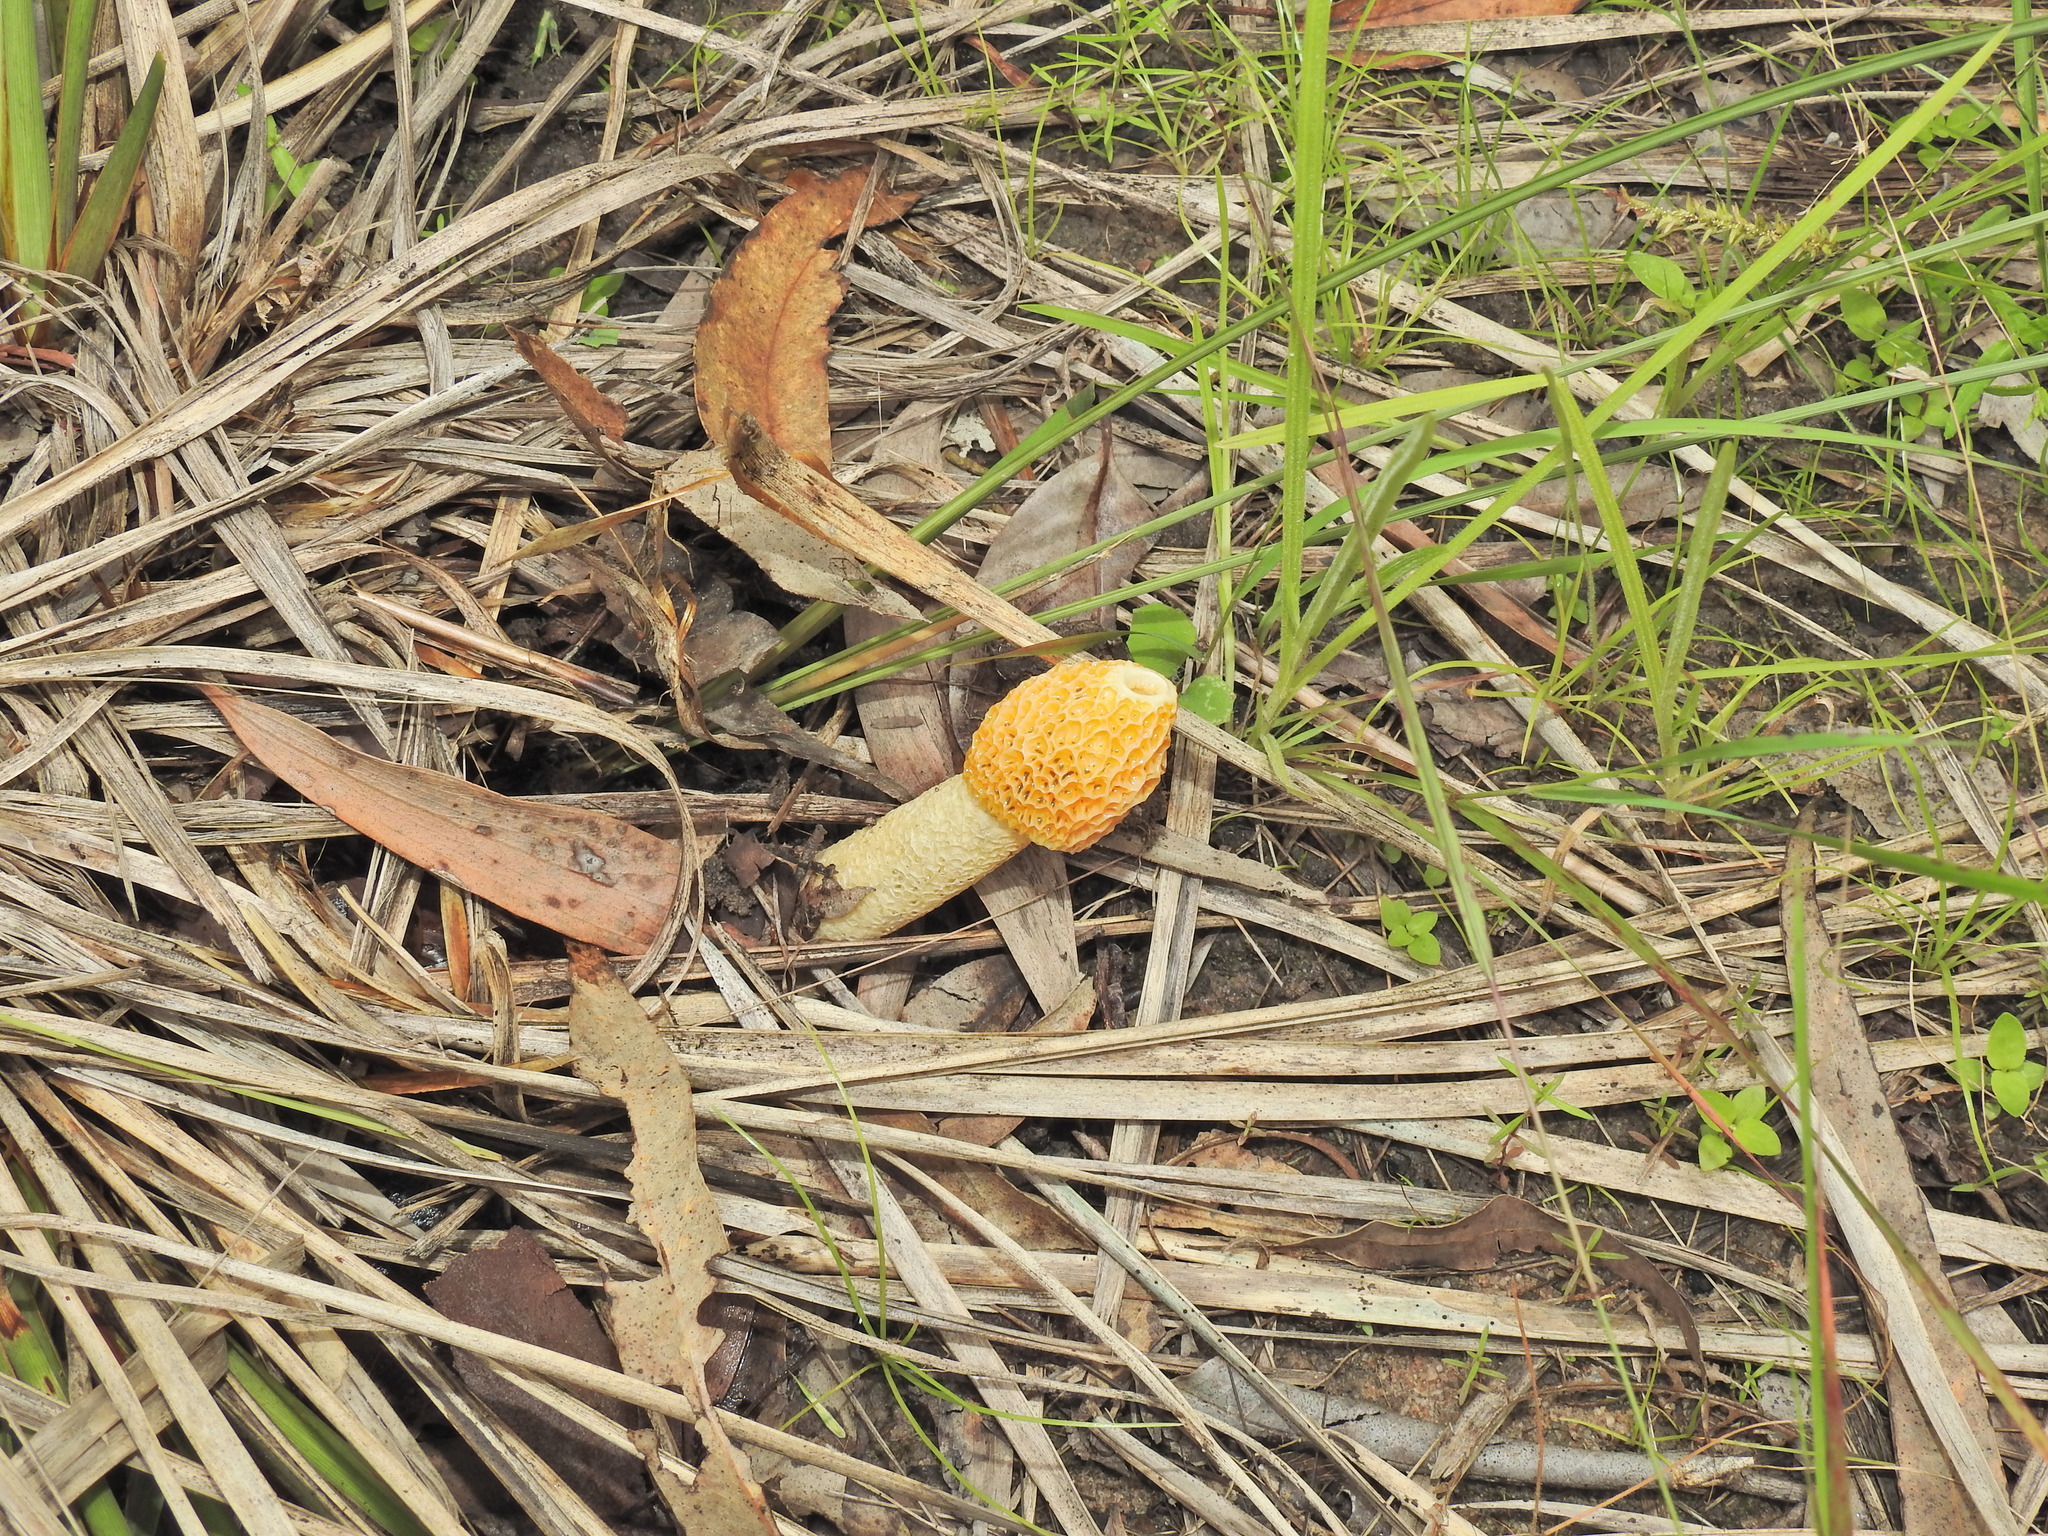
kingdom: Fungi
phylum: Basidiomycota
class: Agaricomycetes
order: Phallales
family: Phallaceae
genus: Phallus
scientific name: Phallus multicolor
